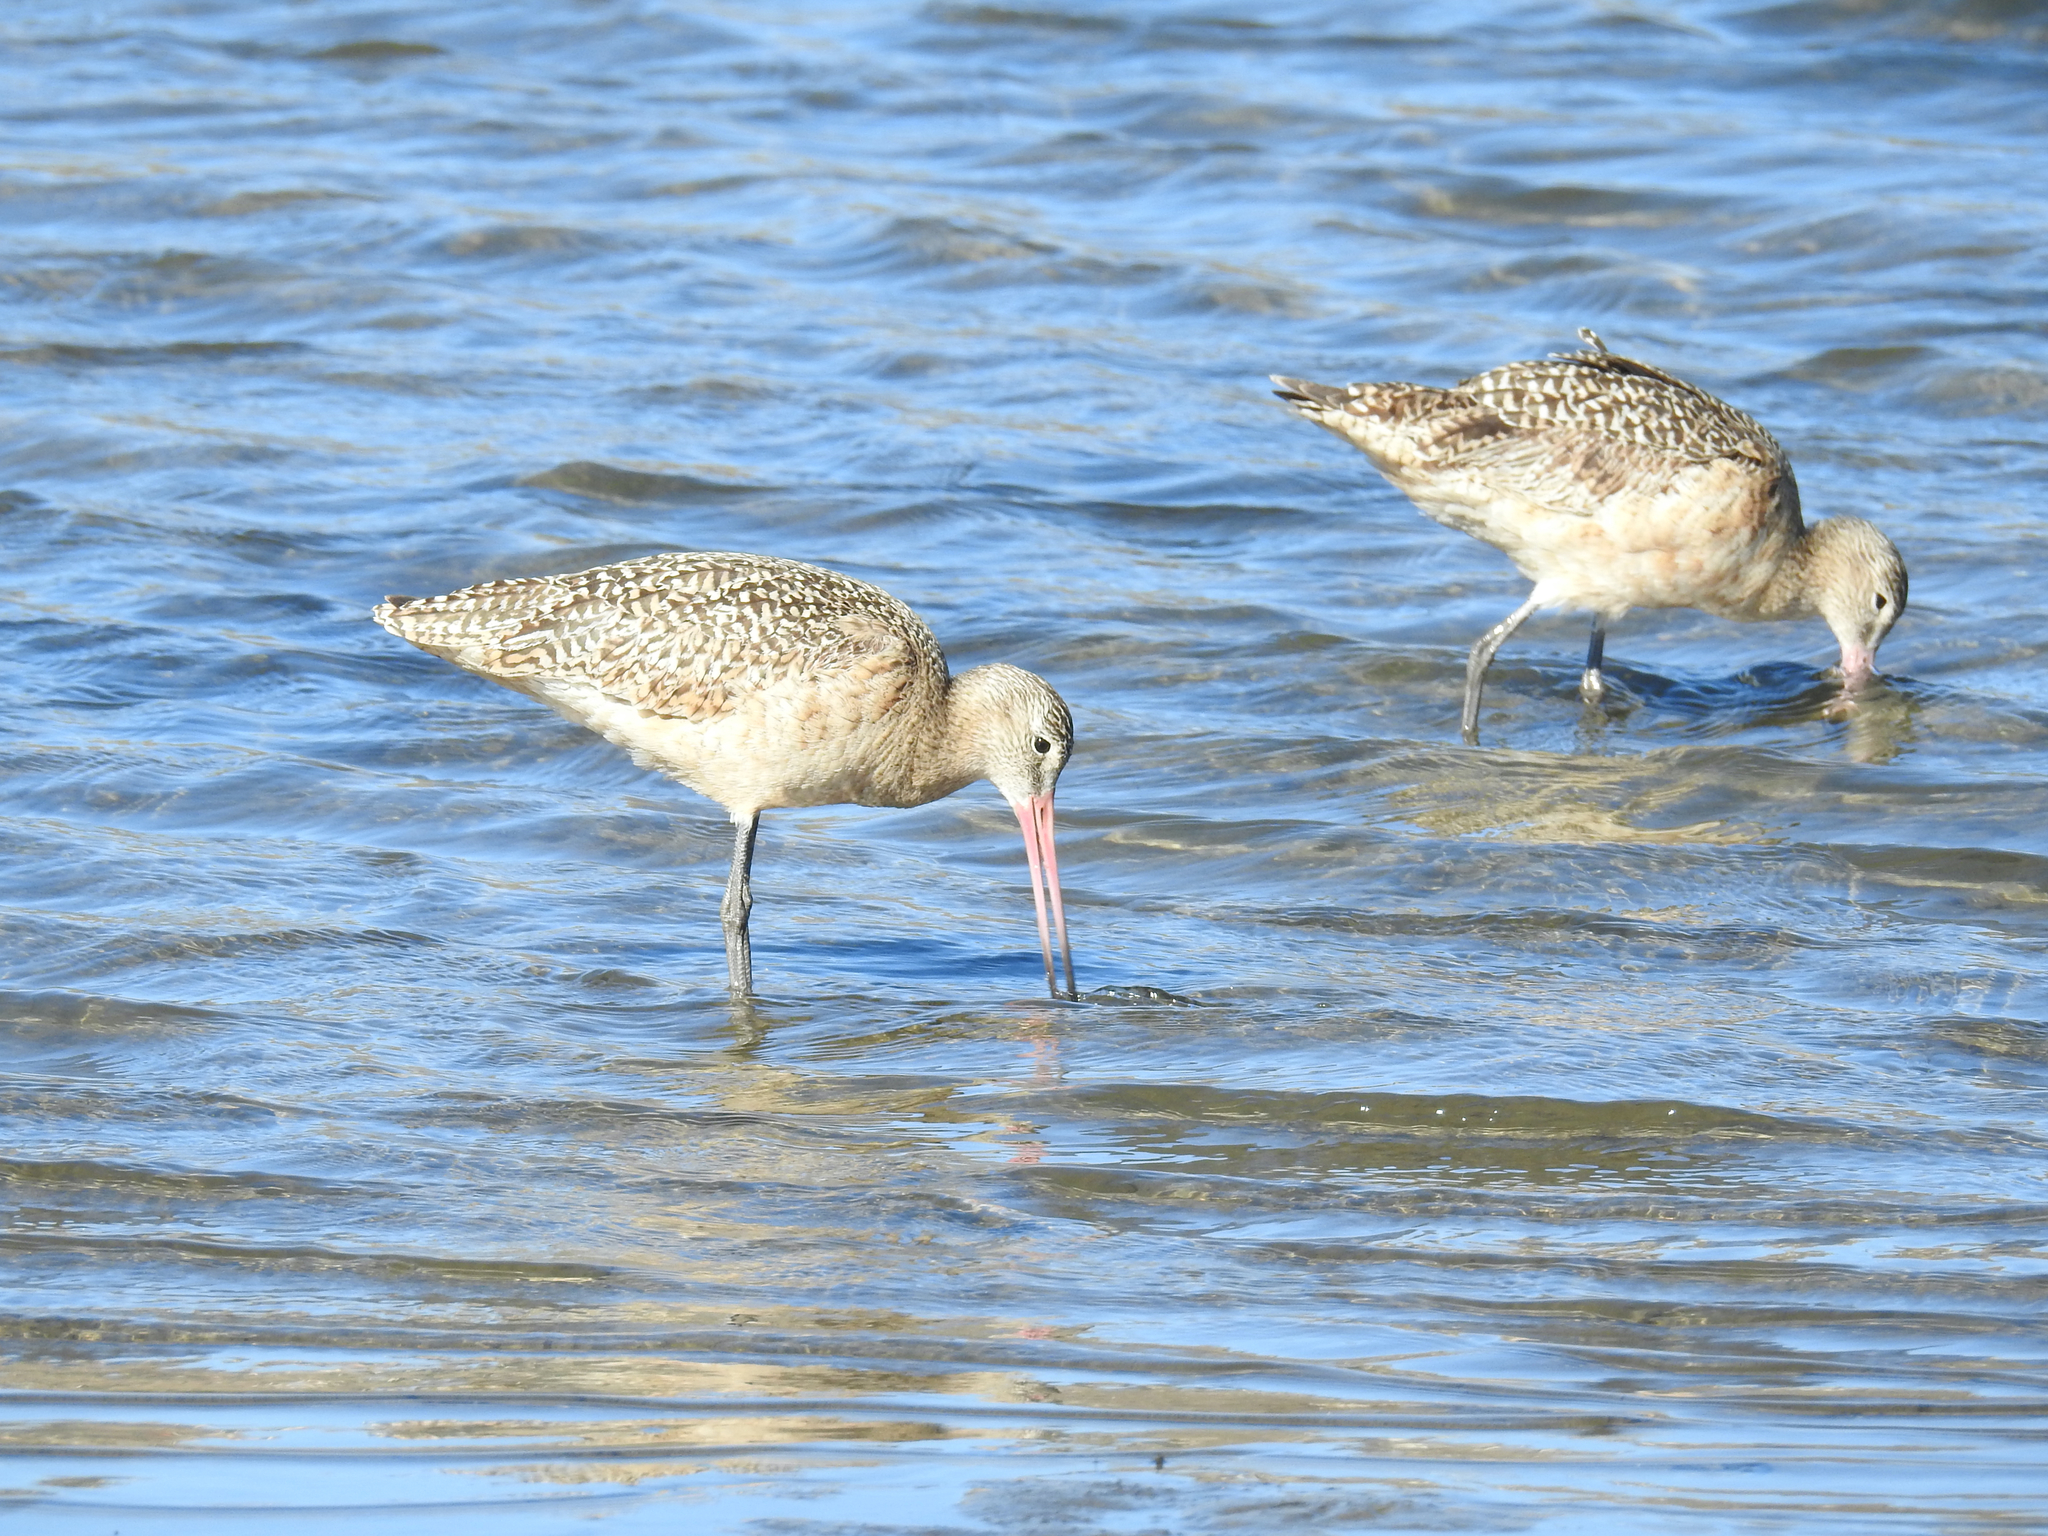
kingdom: Animalia
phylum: Chordata
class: Aves
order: Charadriiformes
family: Scolopacidae
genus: Limosa
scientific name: Limosa fedoa
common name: Marbled godwit
